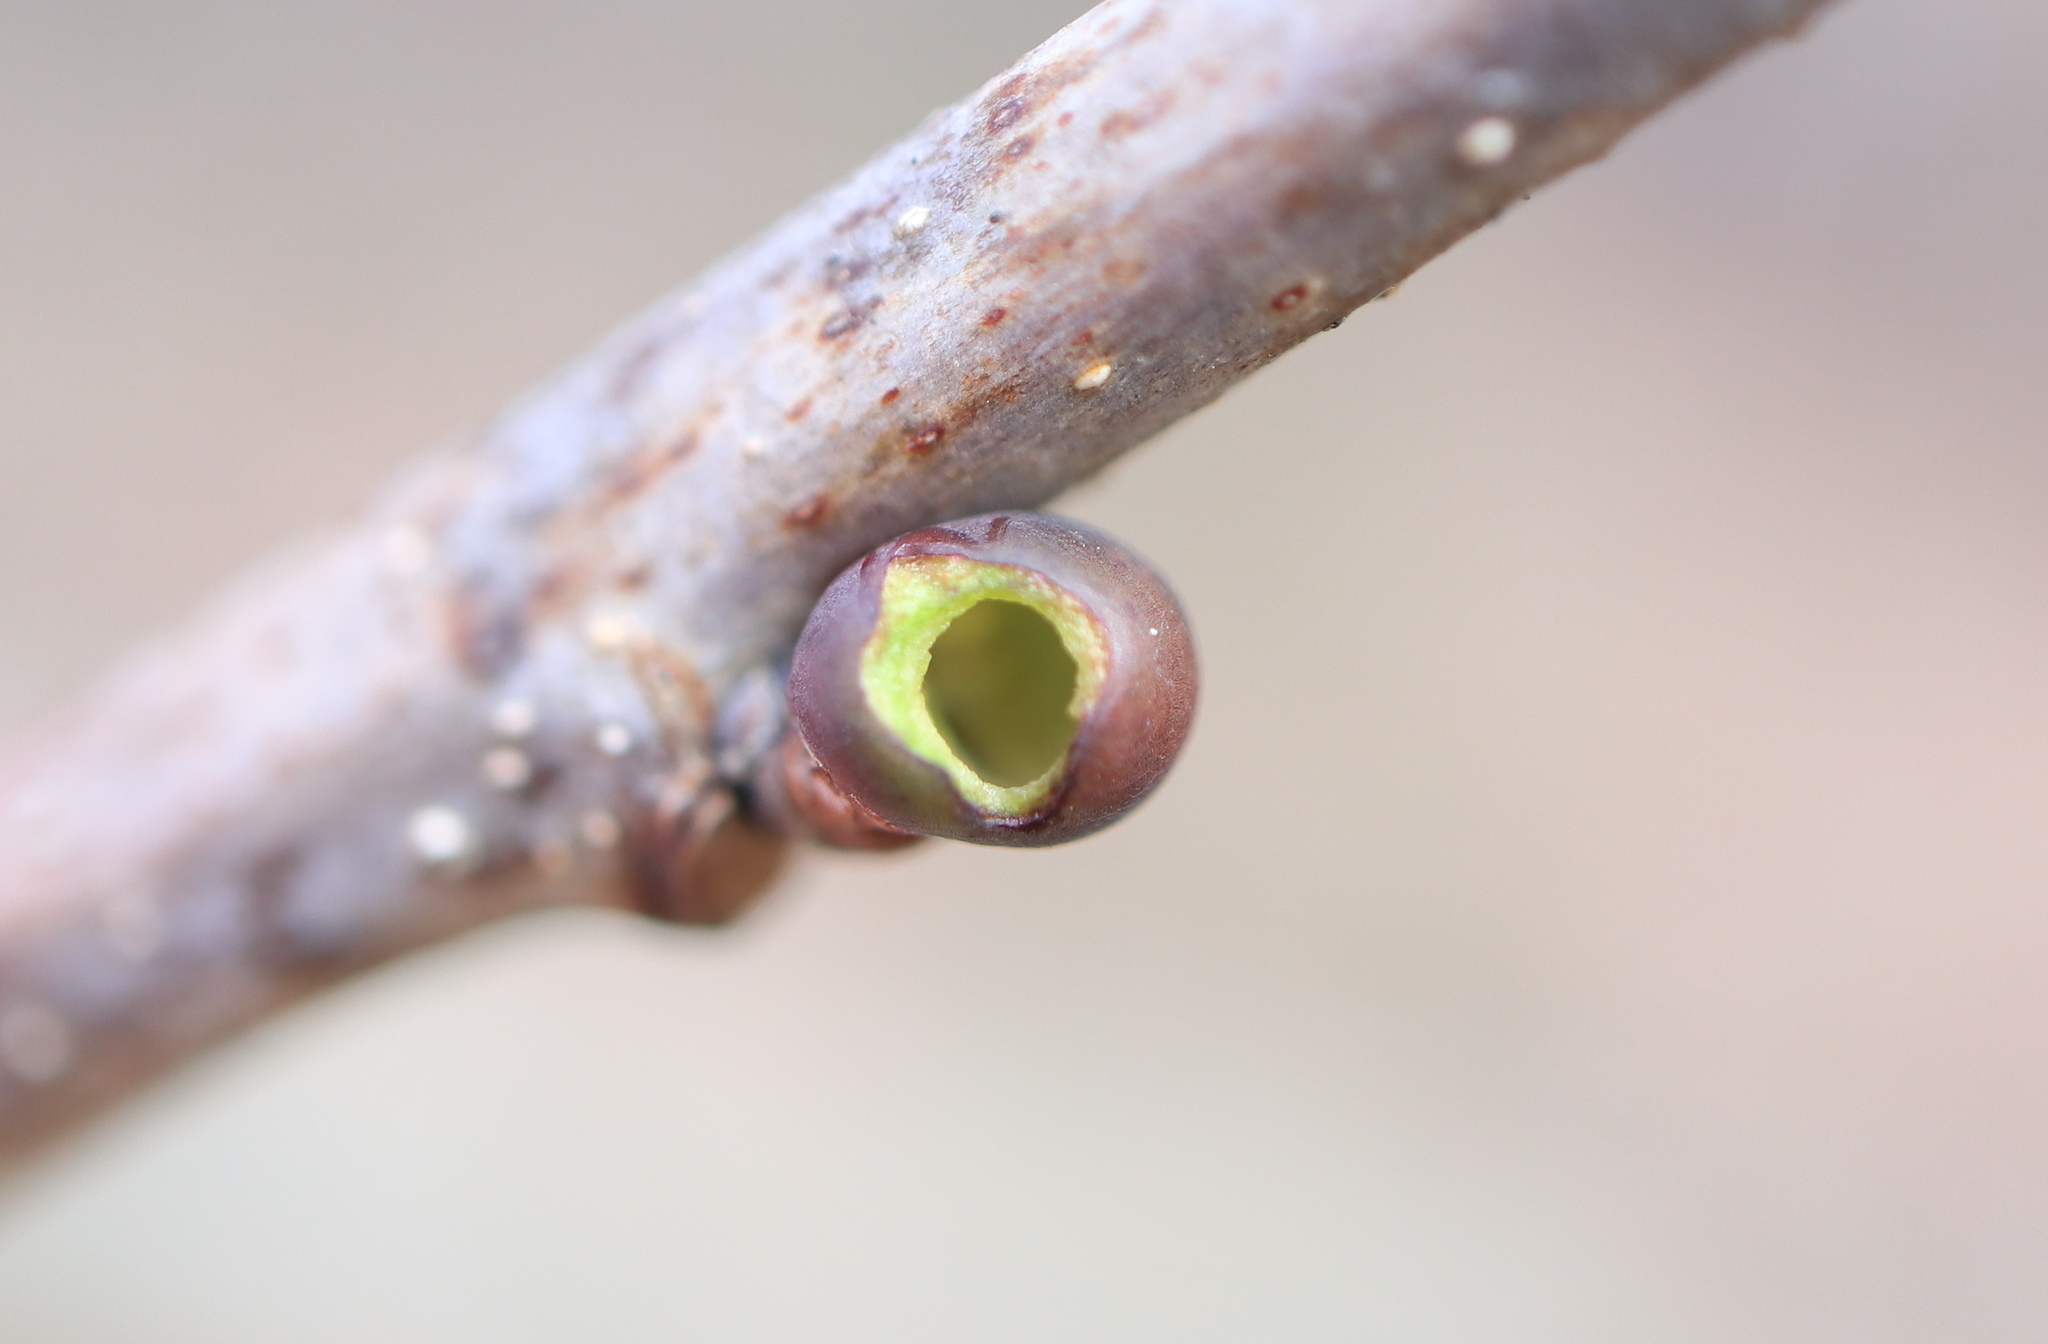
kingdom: Animalia
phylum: Arthropoda
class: Insecta
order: Hymenoptera
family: Cynipidae
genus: Neuroterus
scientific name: Neuroterus
